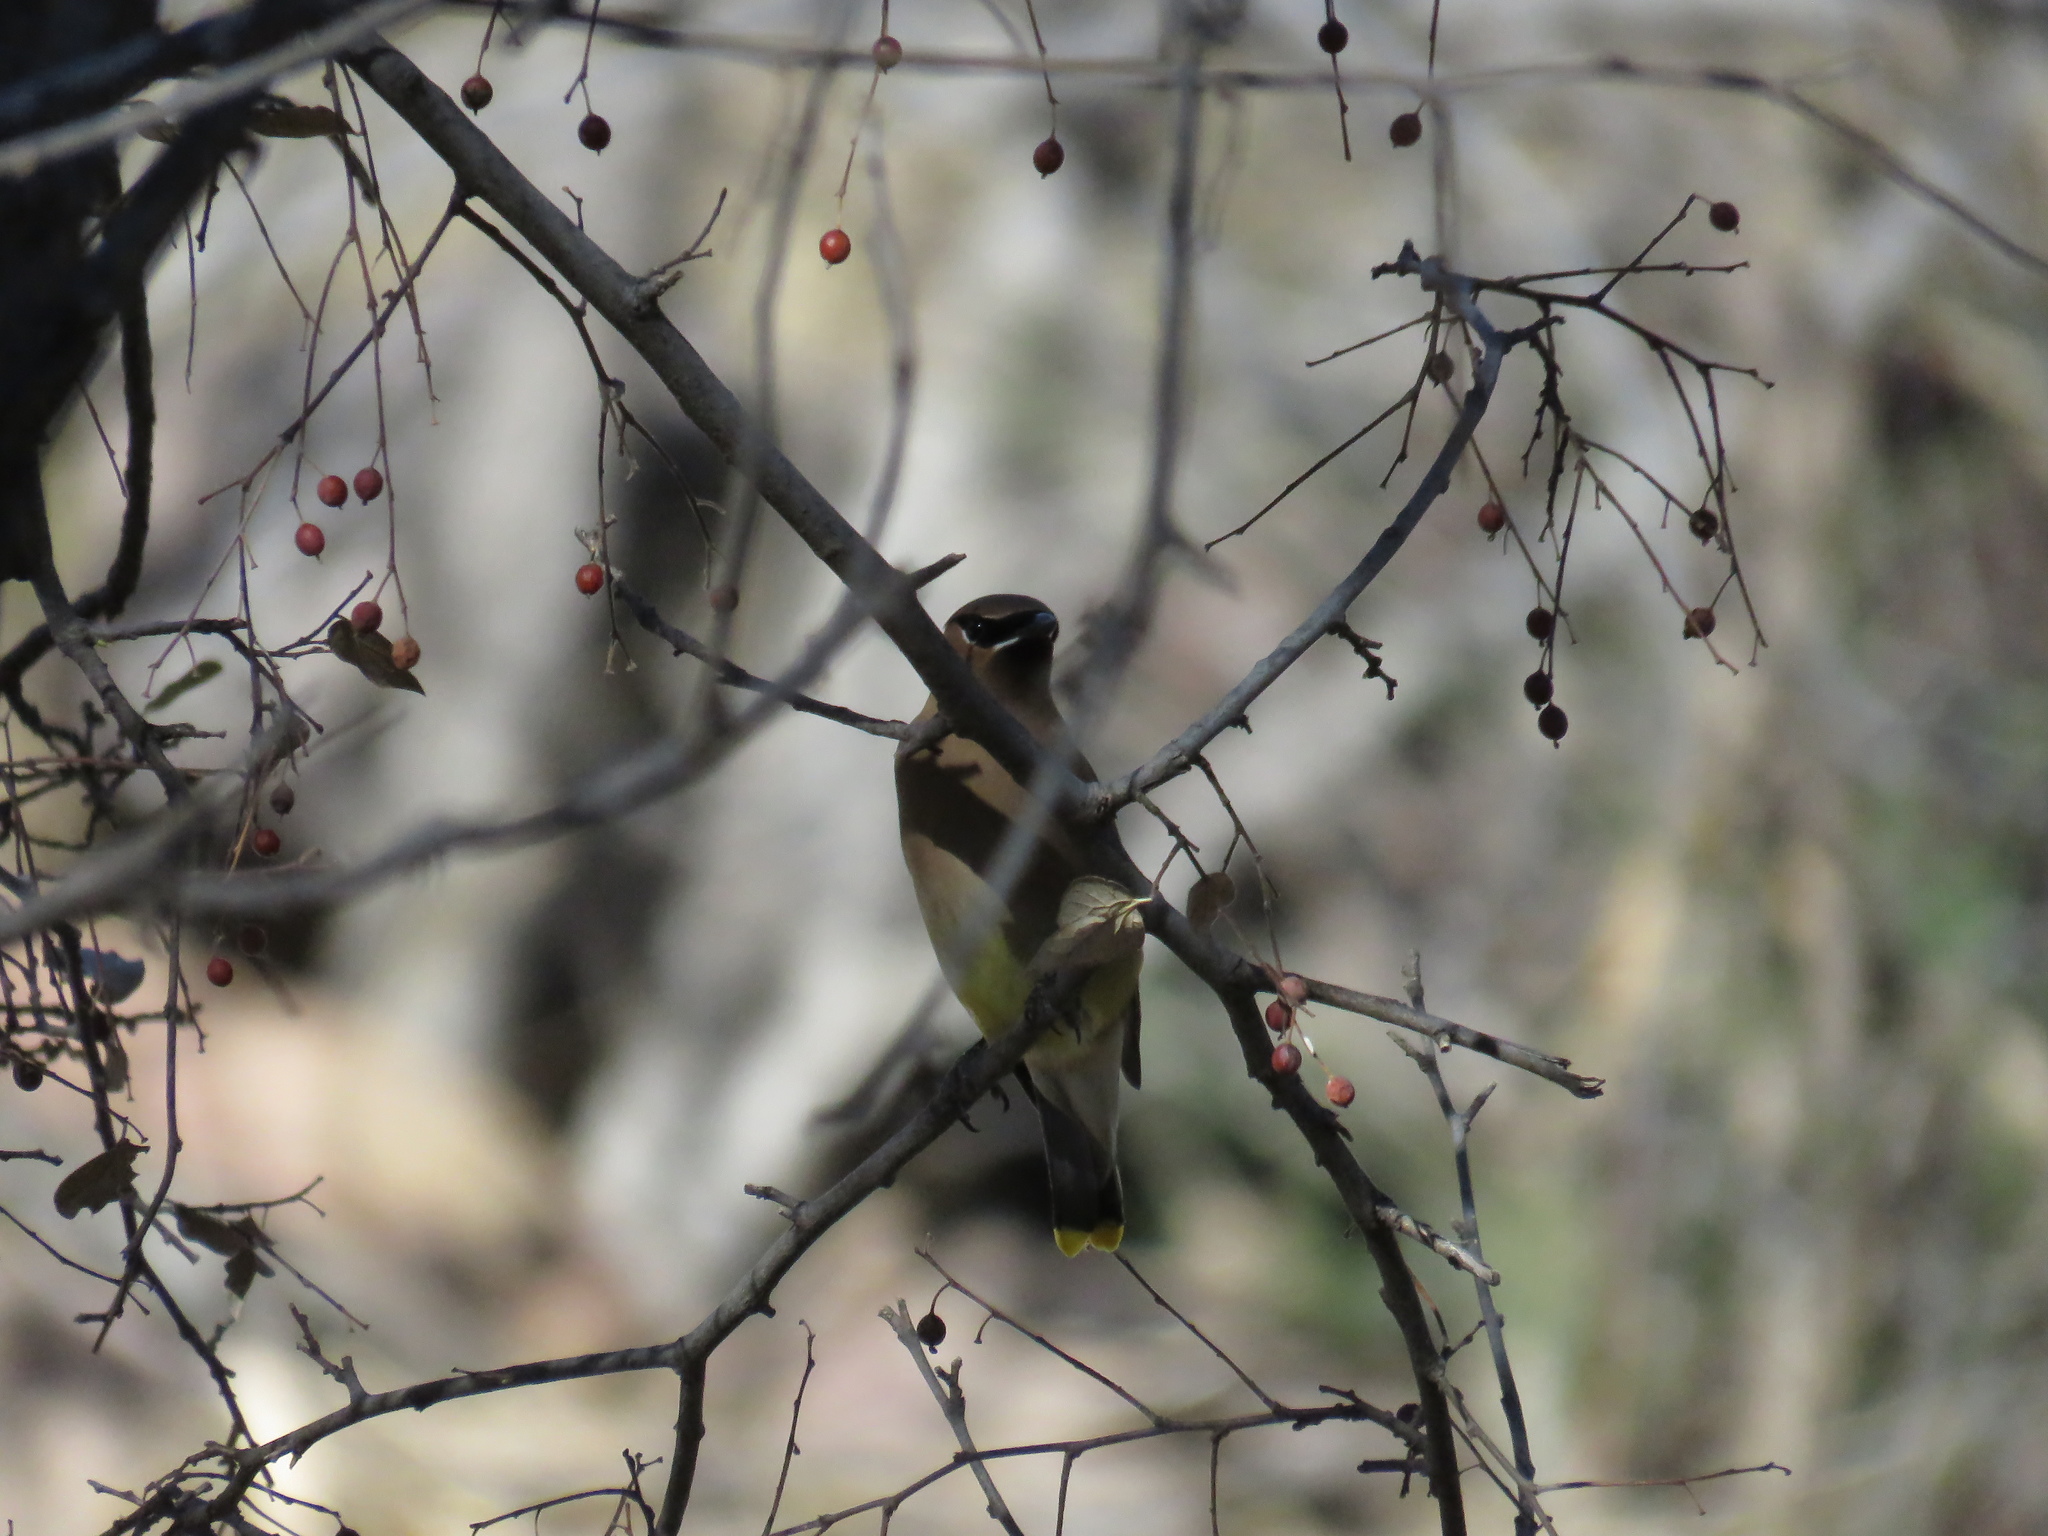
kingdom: Animalia
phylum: Chordata
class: Aves
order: Passeriformes
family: Bombycillidae
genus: Bombycilla
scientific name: Bombycilla cedrorum
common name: Cedar waxwing
